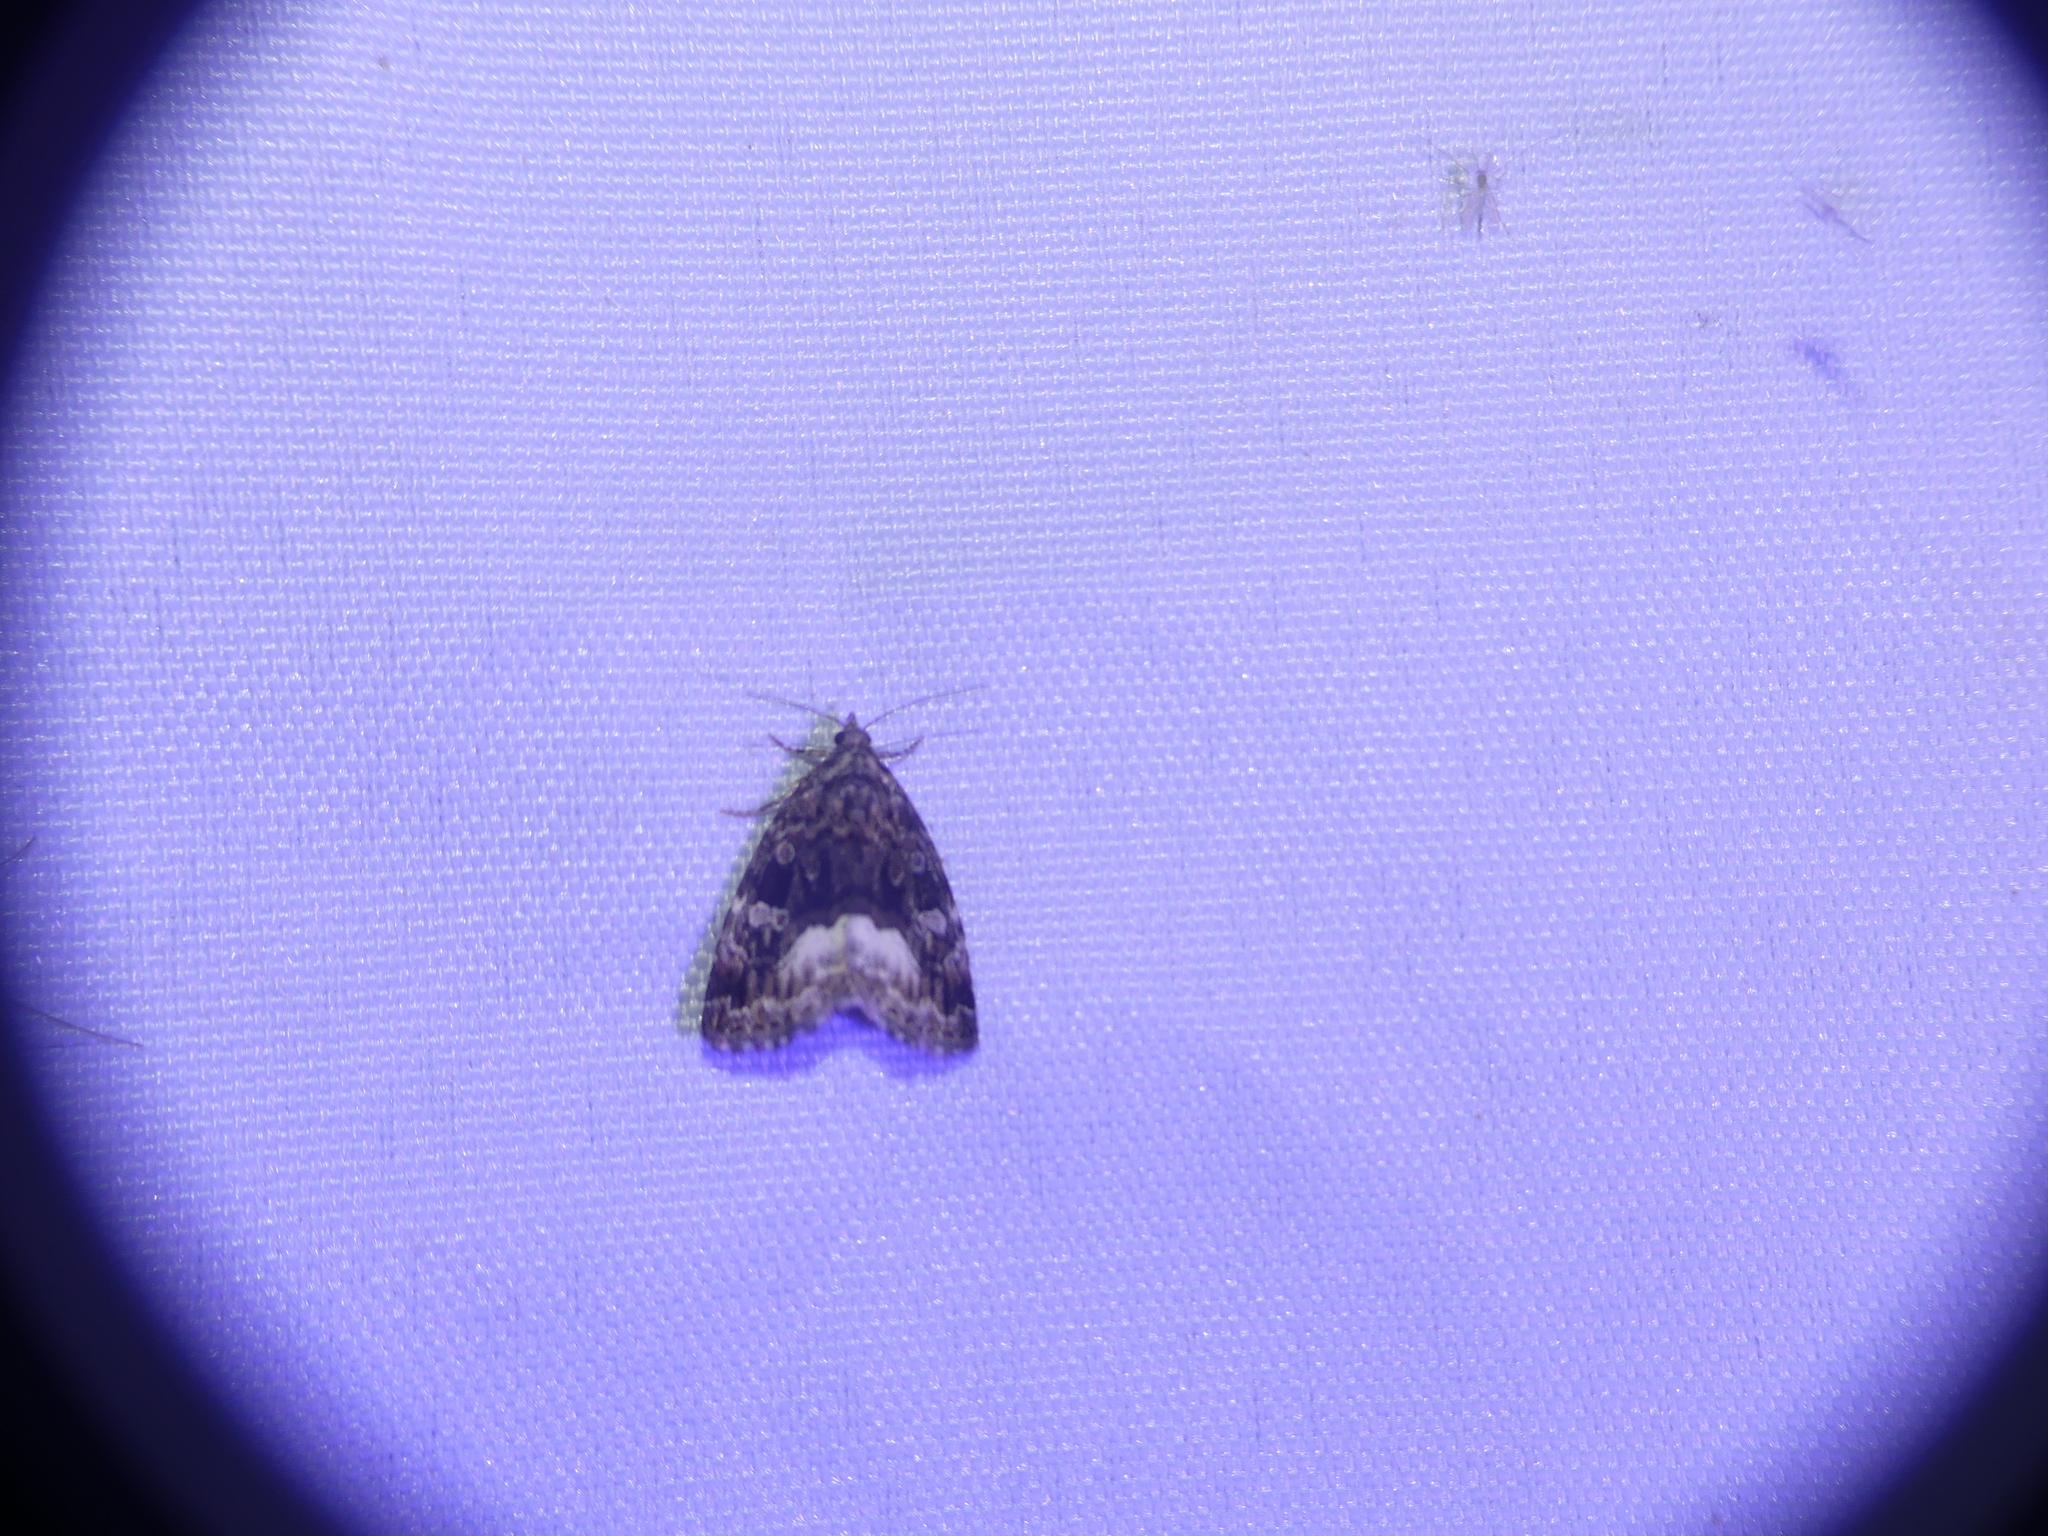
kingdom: Animalia
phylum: Arthropoda
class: Insecta
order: Lepidoptera
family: Noctuidae
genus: Deltote
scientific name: Deltote pygarga
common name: Marbled white spot
